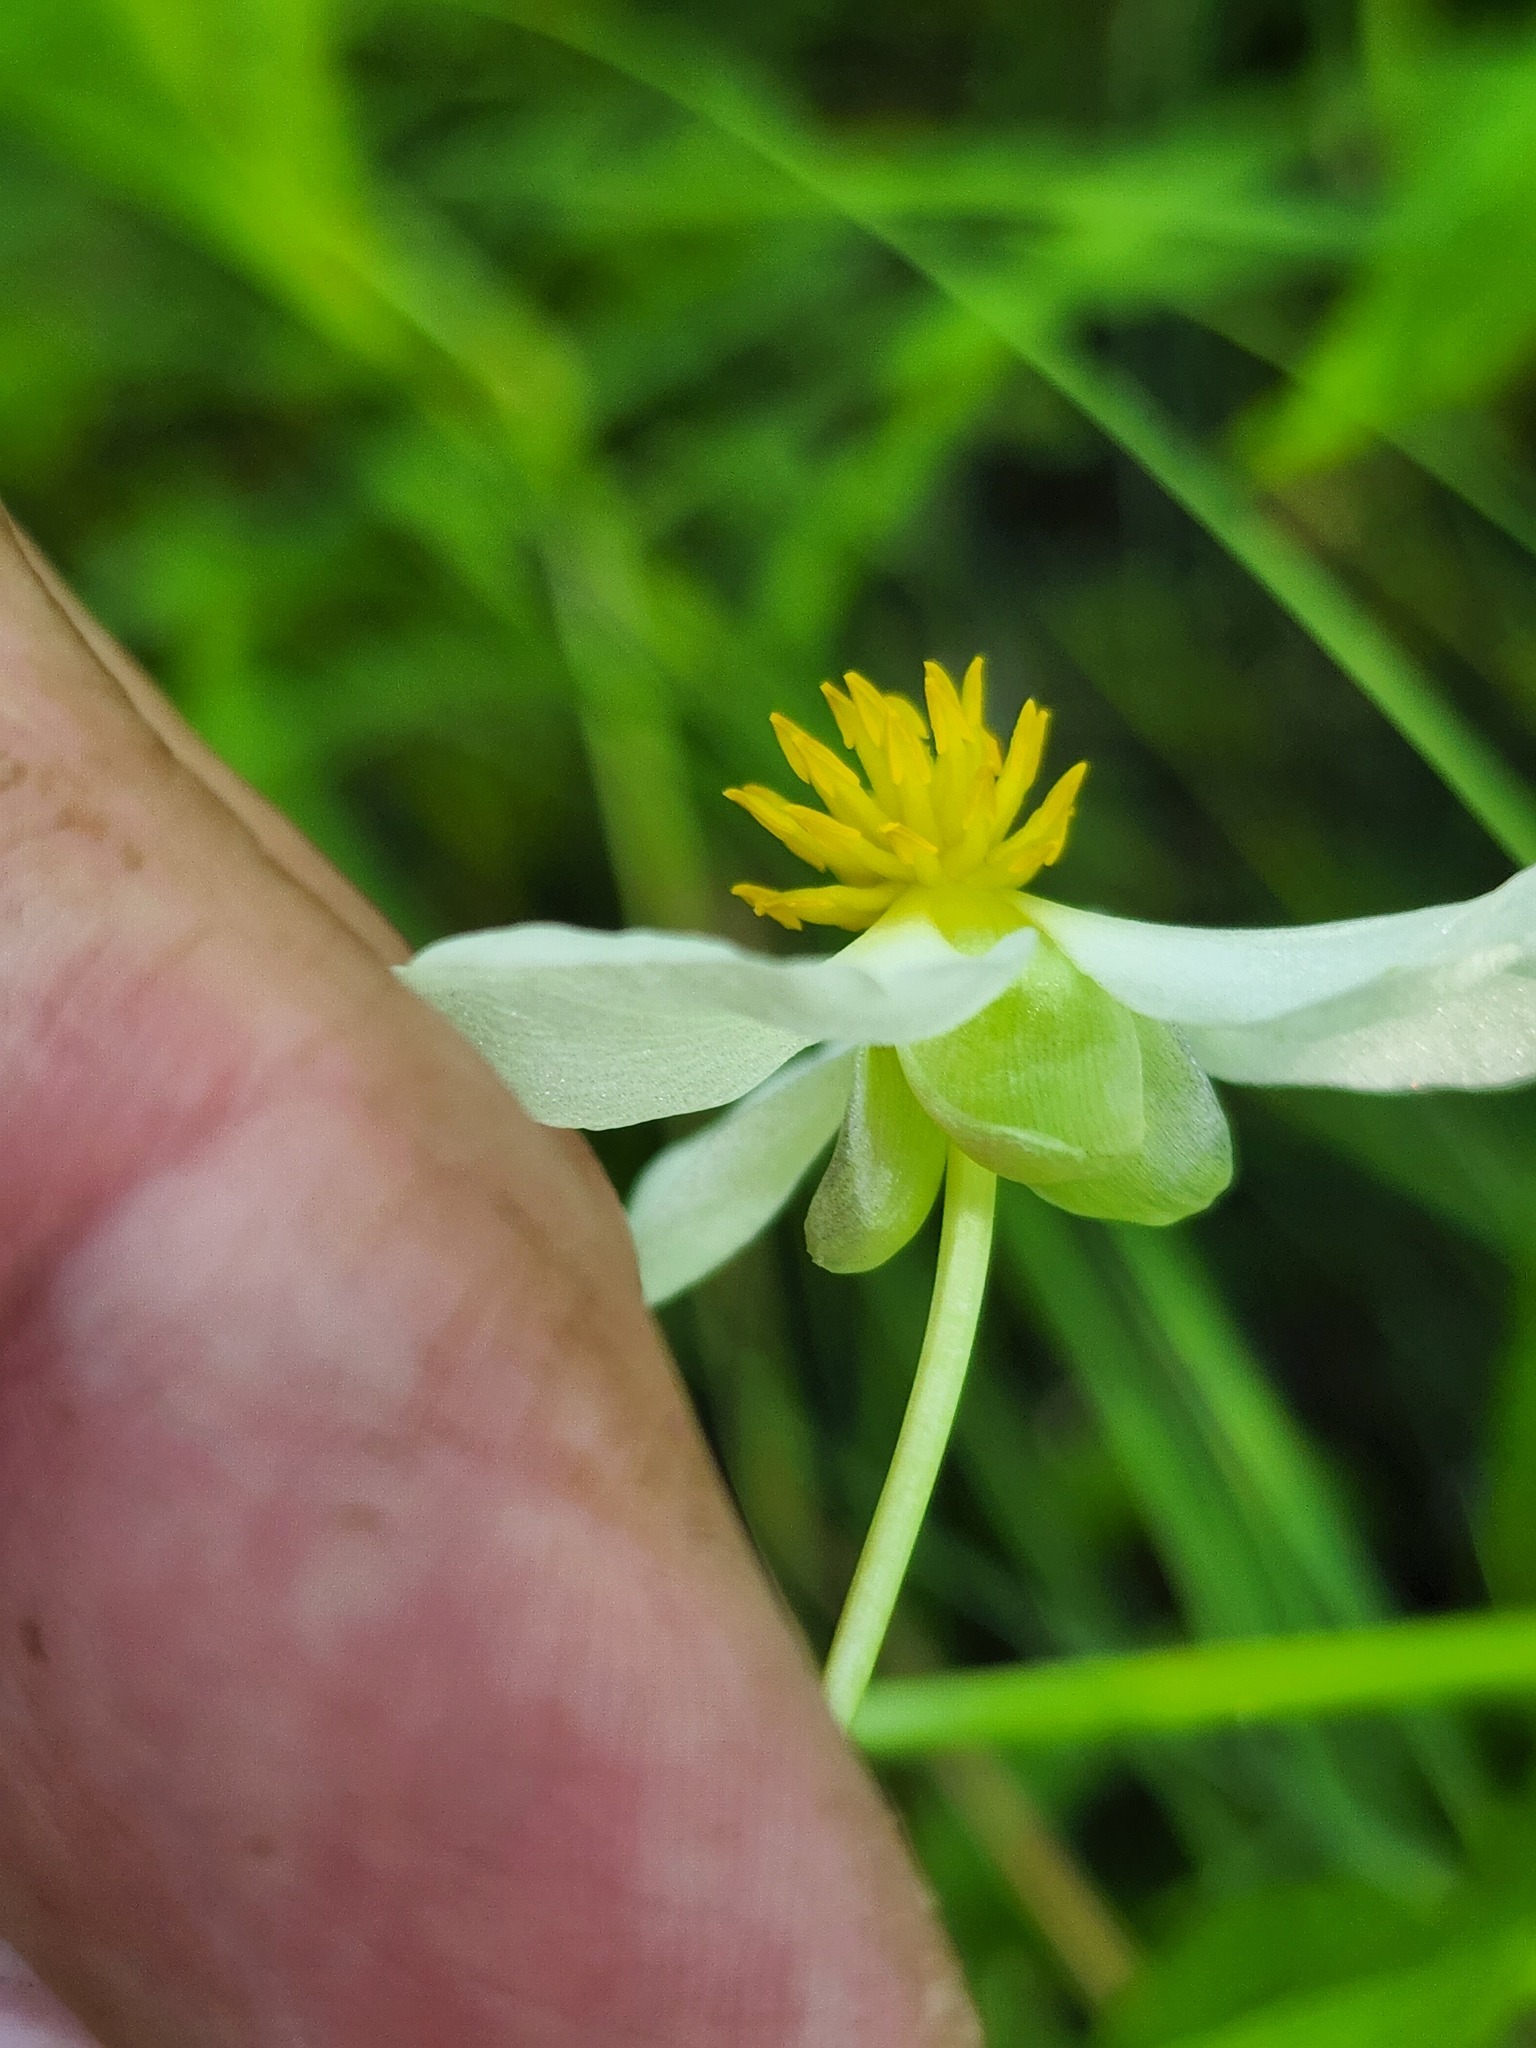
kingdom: Plantae
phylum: Tracheophyta
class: Liliopsida
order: Alismatales
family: Alismataceae
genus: Sagittaria
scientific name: Sagittaria latifolia
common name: Duck-potato
